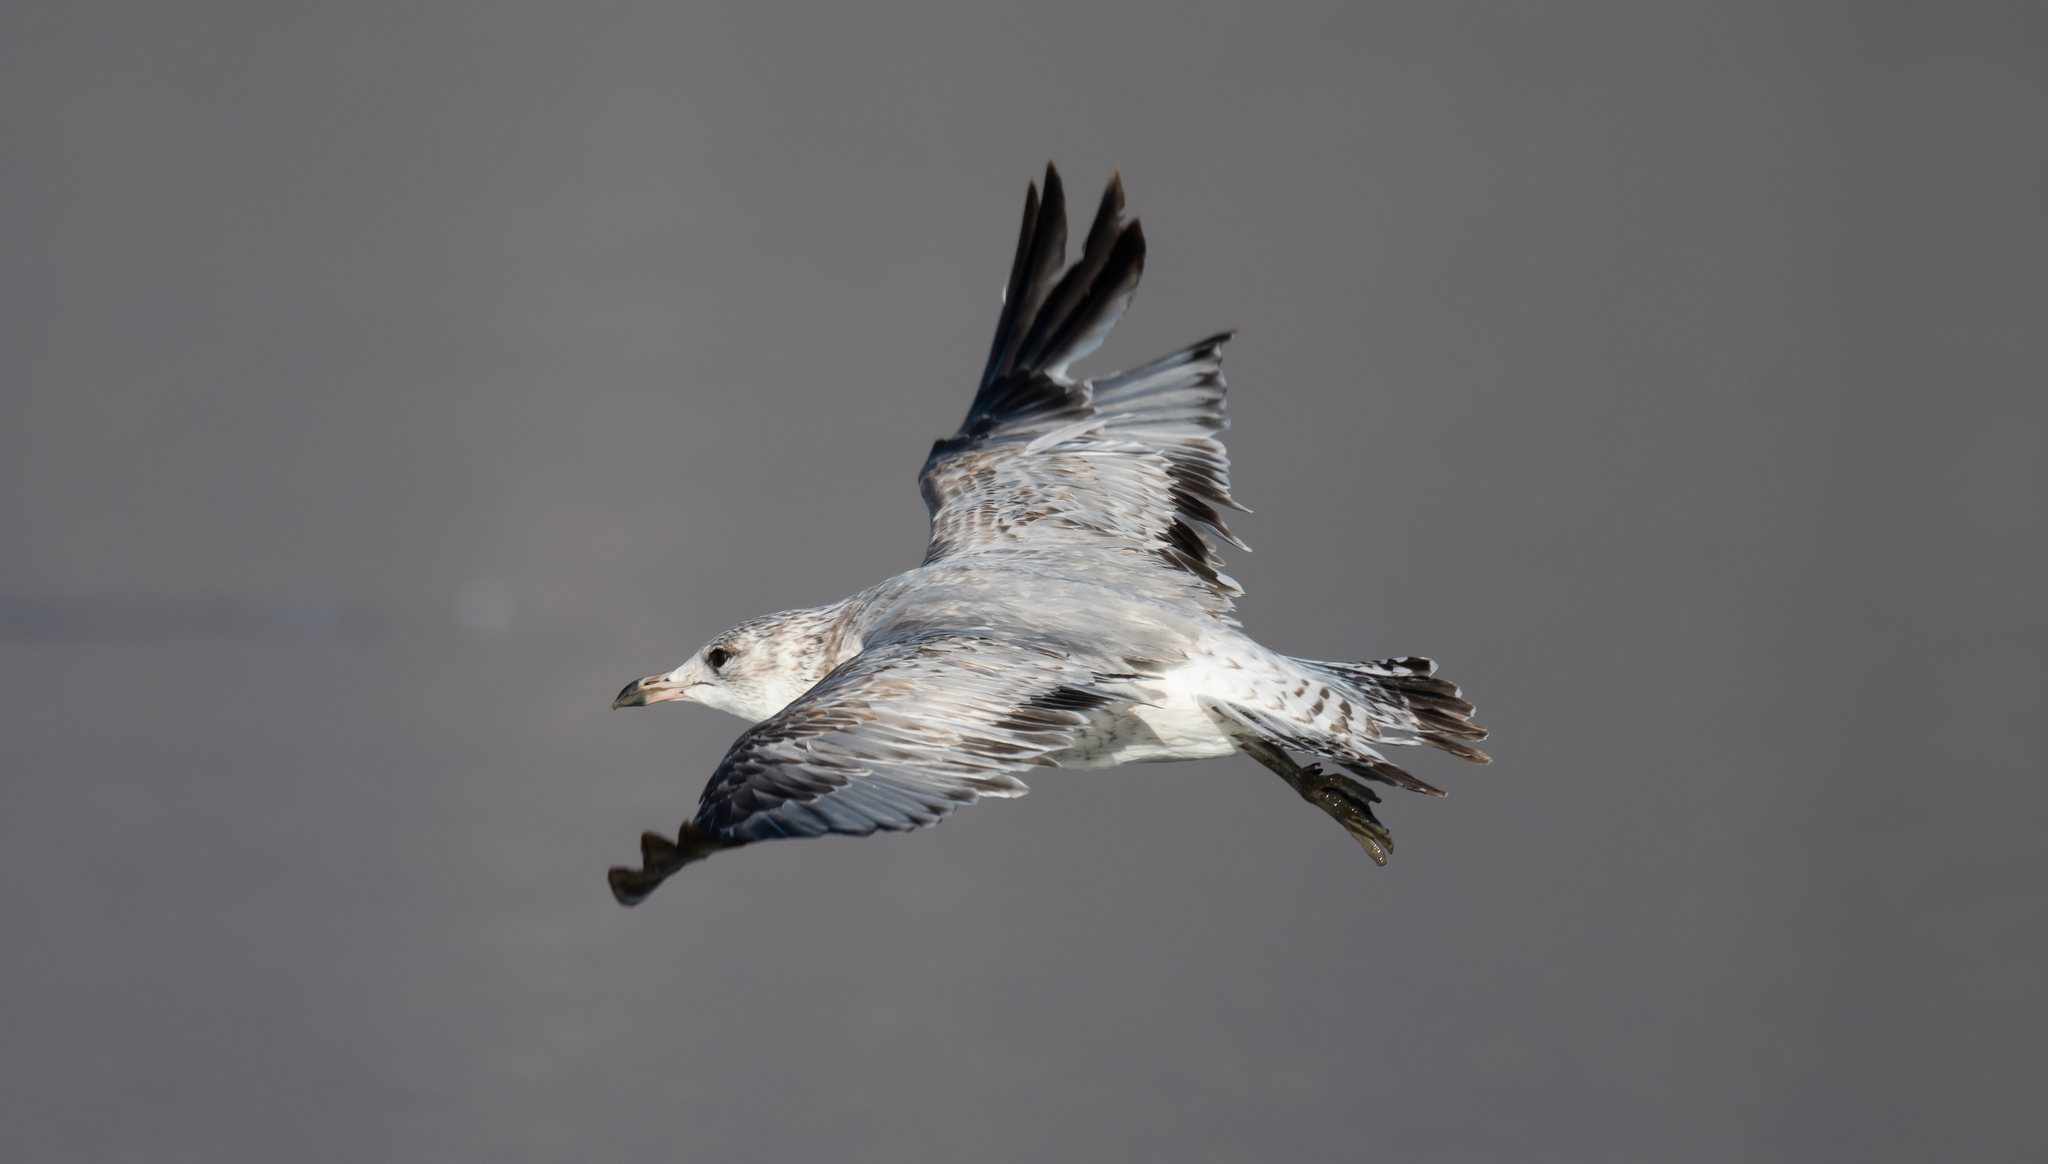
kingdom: Animalia
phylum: Chordata
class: Aves
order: Charadriiformes
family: Laridae
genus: Larus
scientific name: Larus delawarensis
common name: Ring-billed gull
